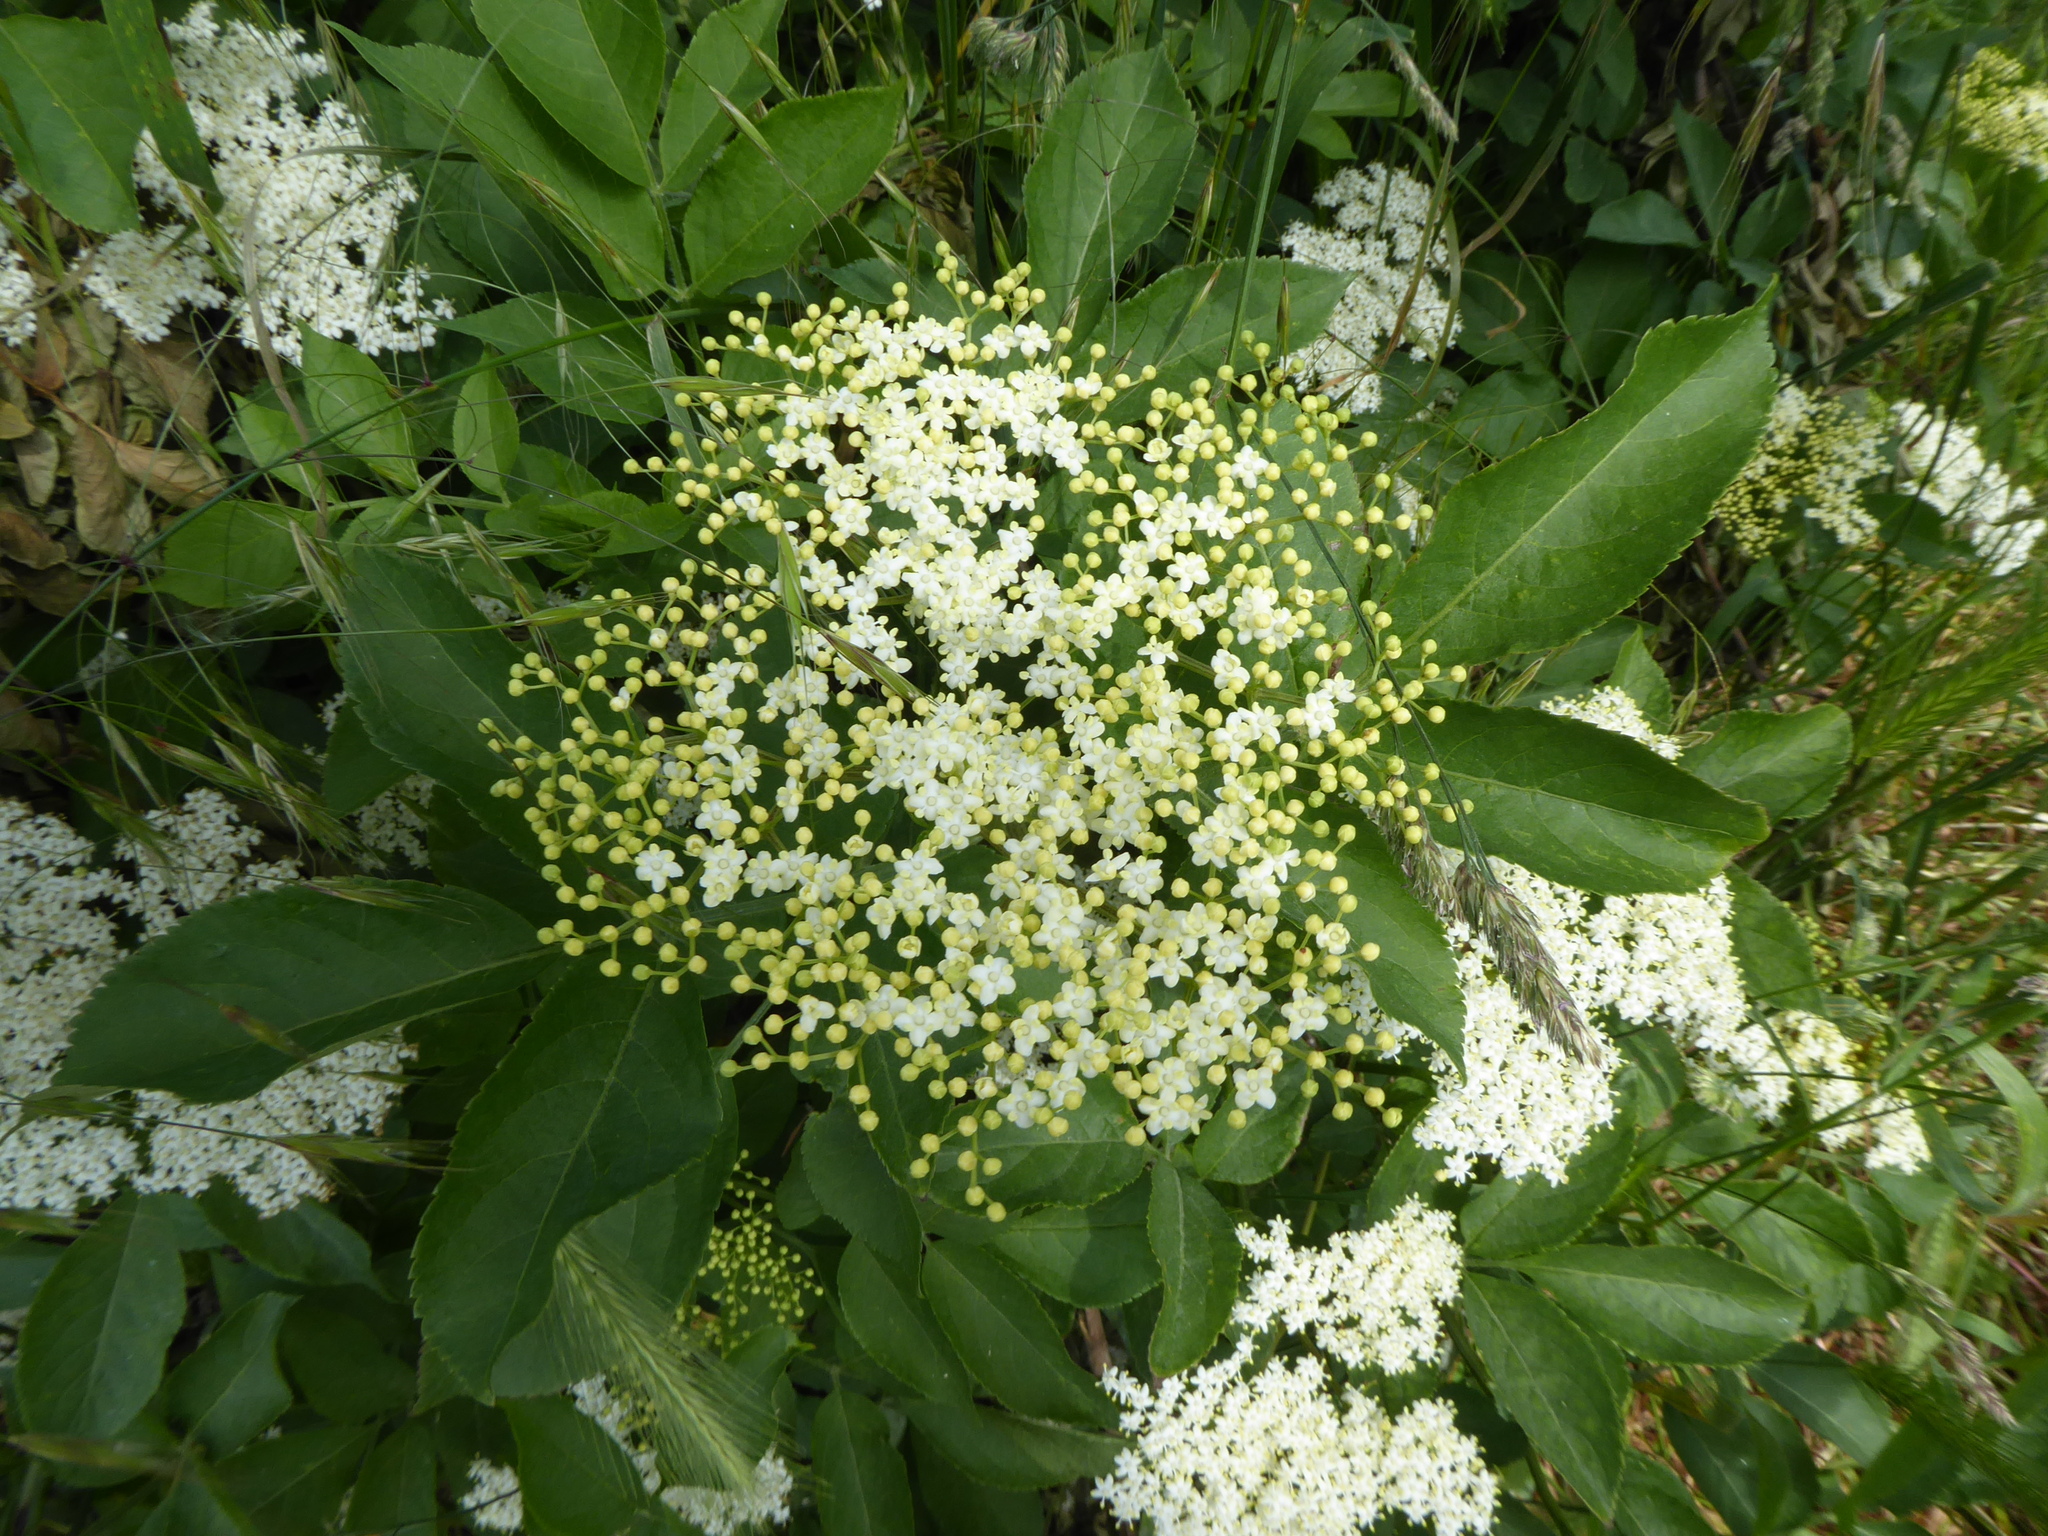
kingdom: Plantae
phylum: Tracheophyta
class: Magnoliopsida
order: Dipsacales
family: Viburnaceae
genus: Sambucus
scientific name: Sambucus nigra
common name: Elder
